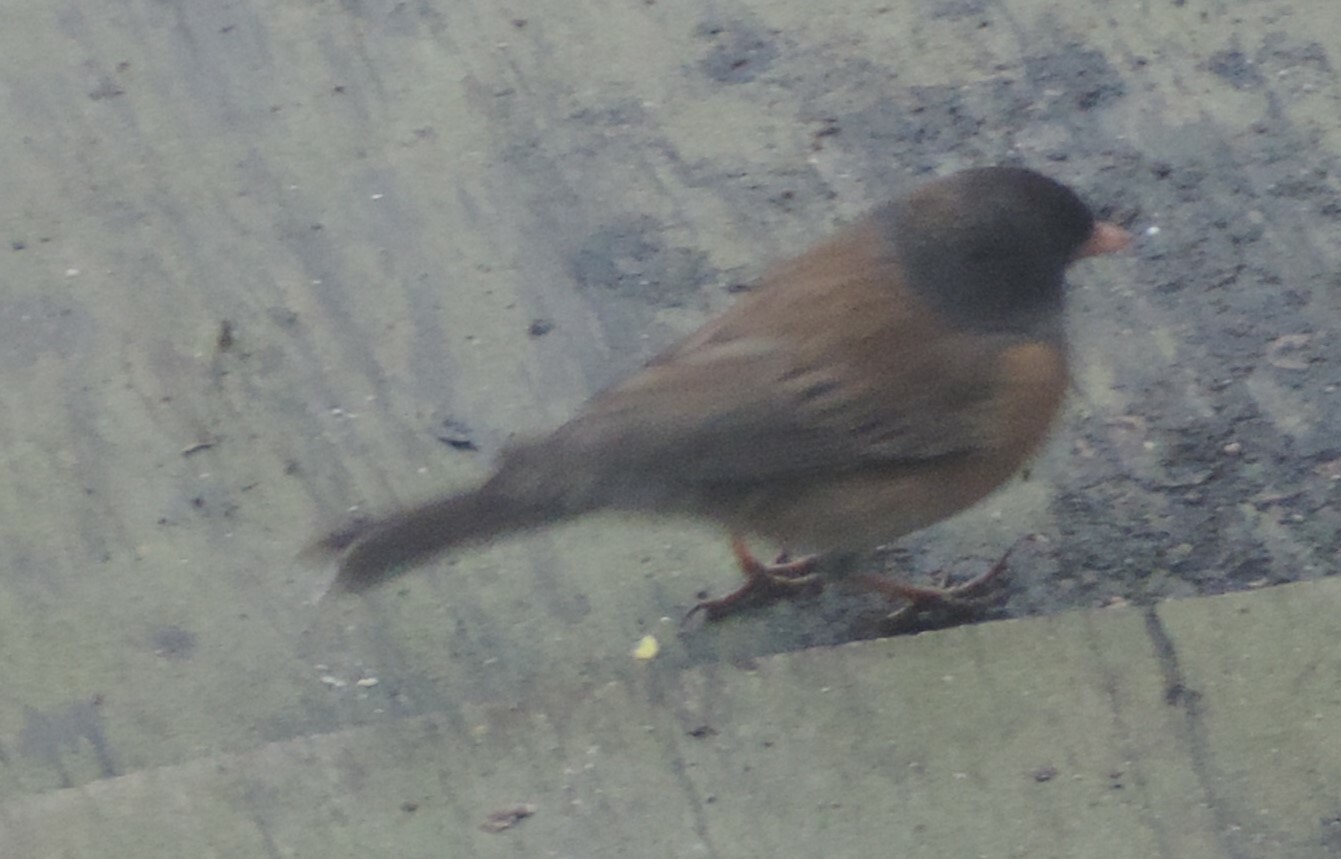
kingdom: Animalia
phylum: Chordata
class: Aves
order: Passeriformes
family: Passerellidae
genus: Junco
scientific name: Junco hyemalis
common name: Dark-eyed junco
